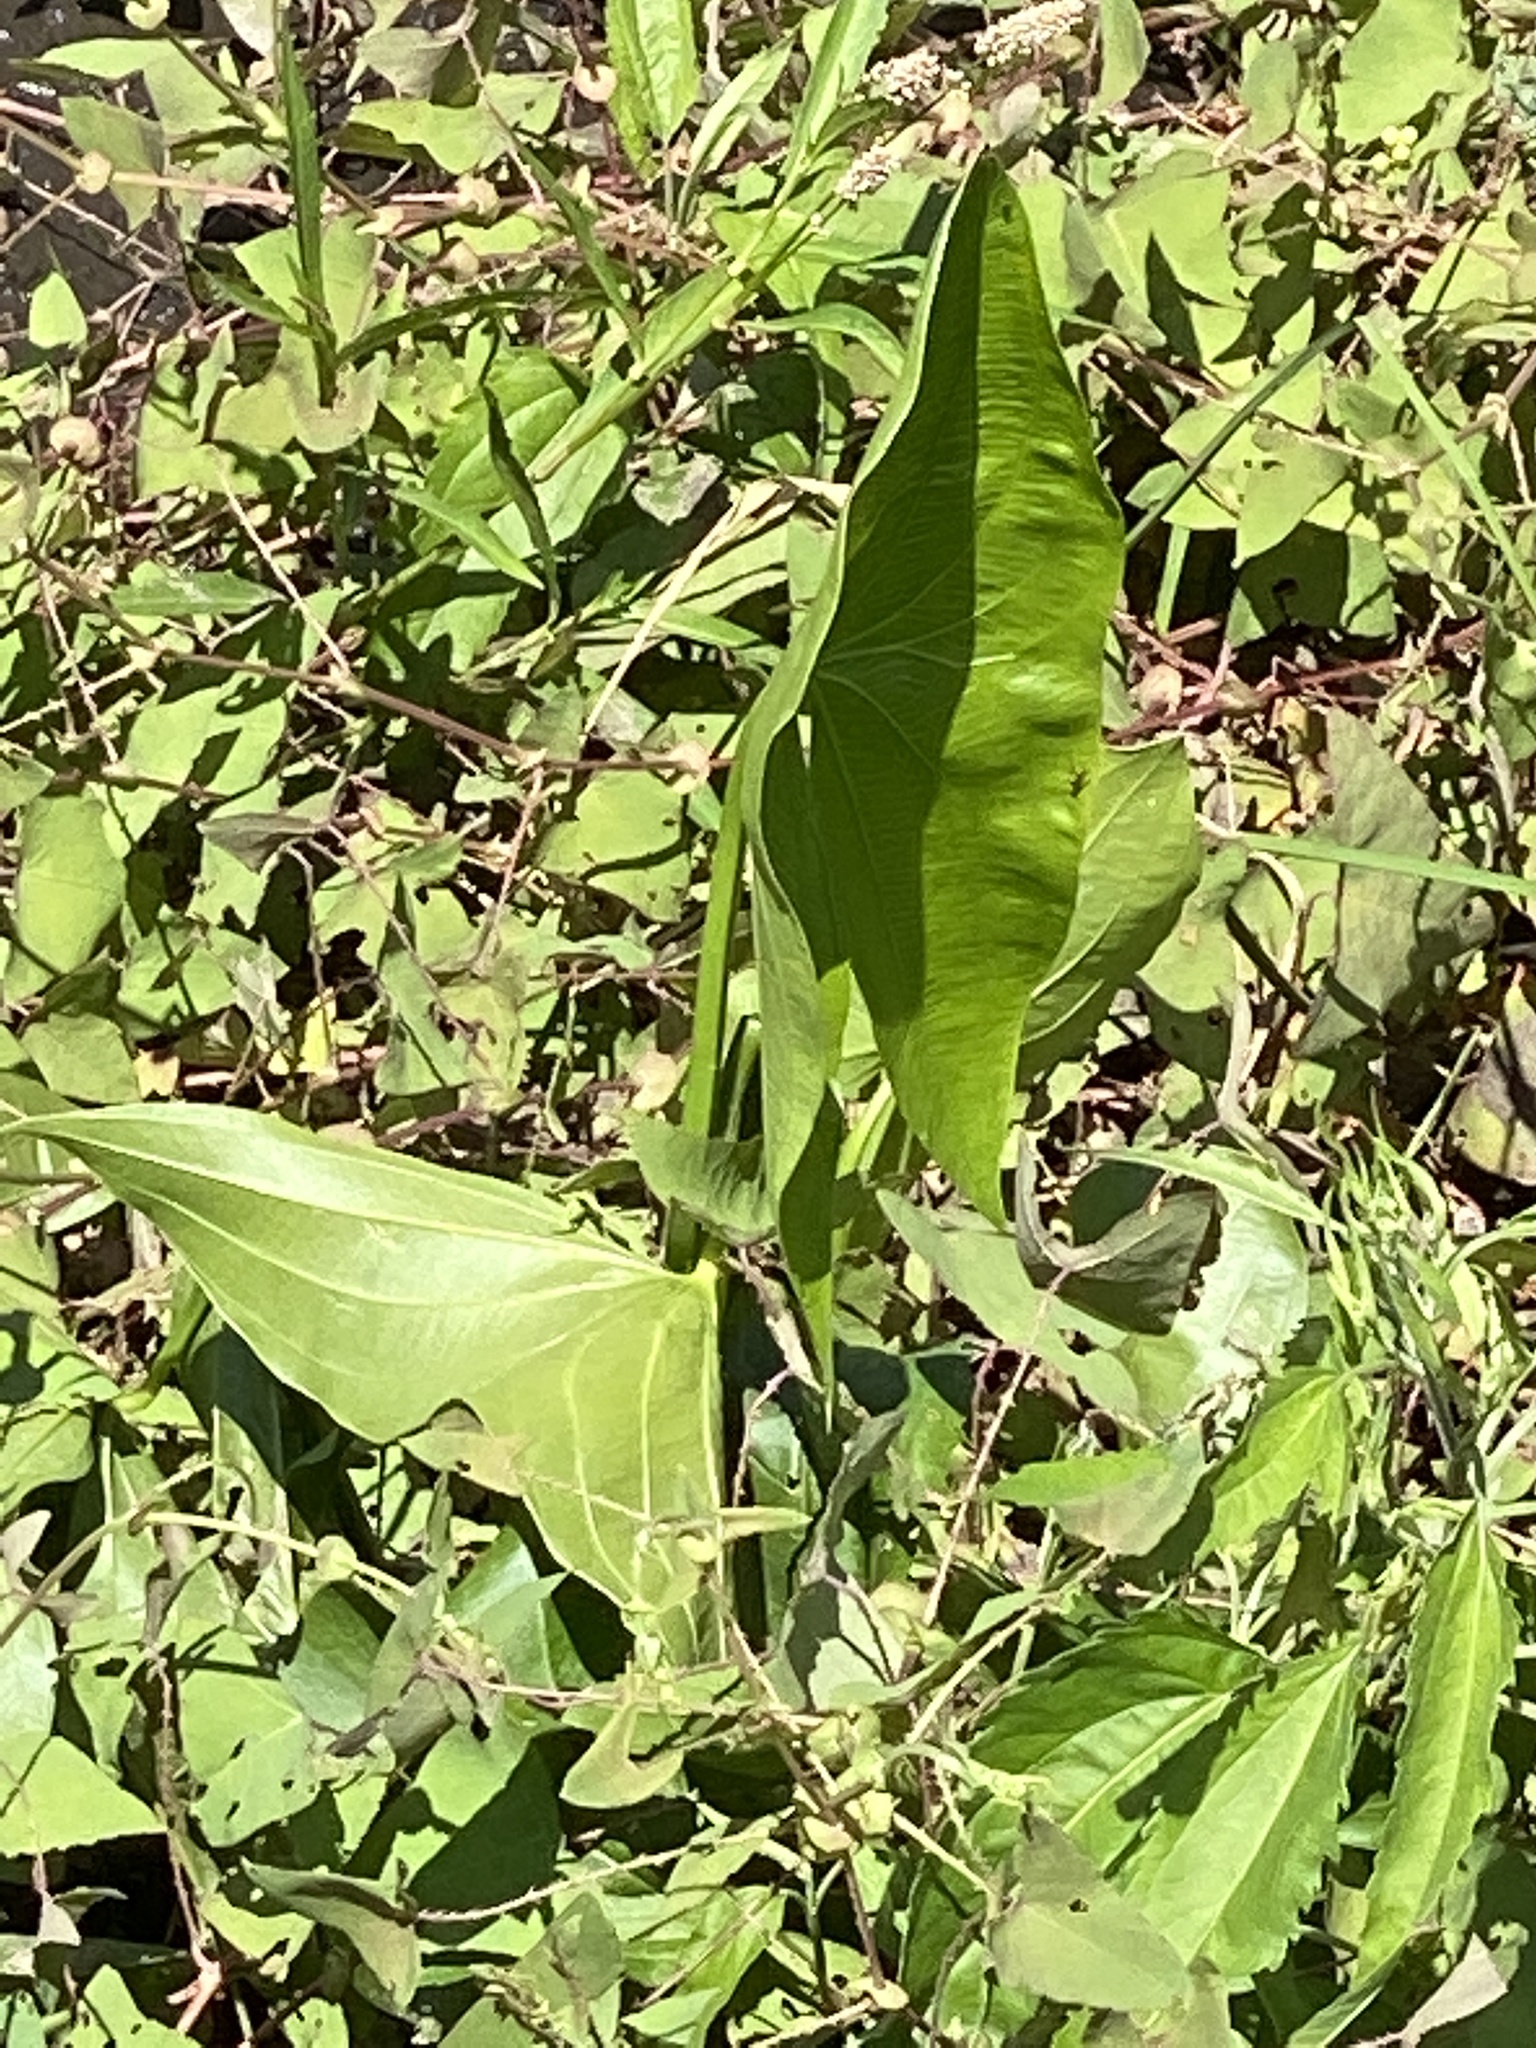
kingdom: Plantae
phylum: Tracheophyta
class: Liliopsida
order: Alismatales
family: Alismataceae
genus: Sagittaria
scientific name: Sagittaria latifolia
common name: Duck-potato
